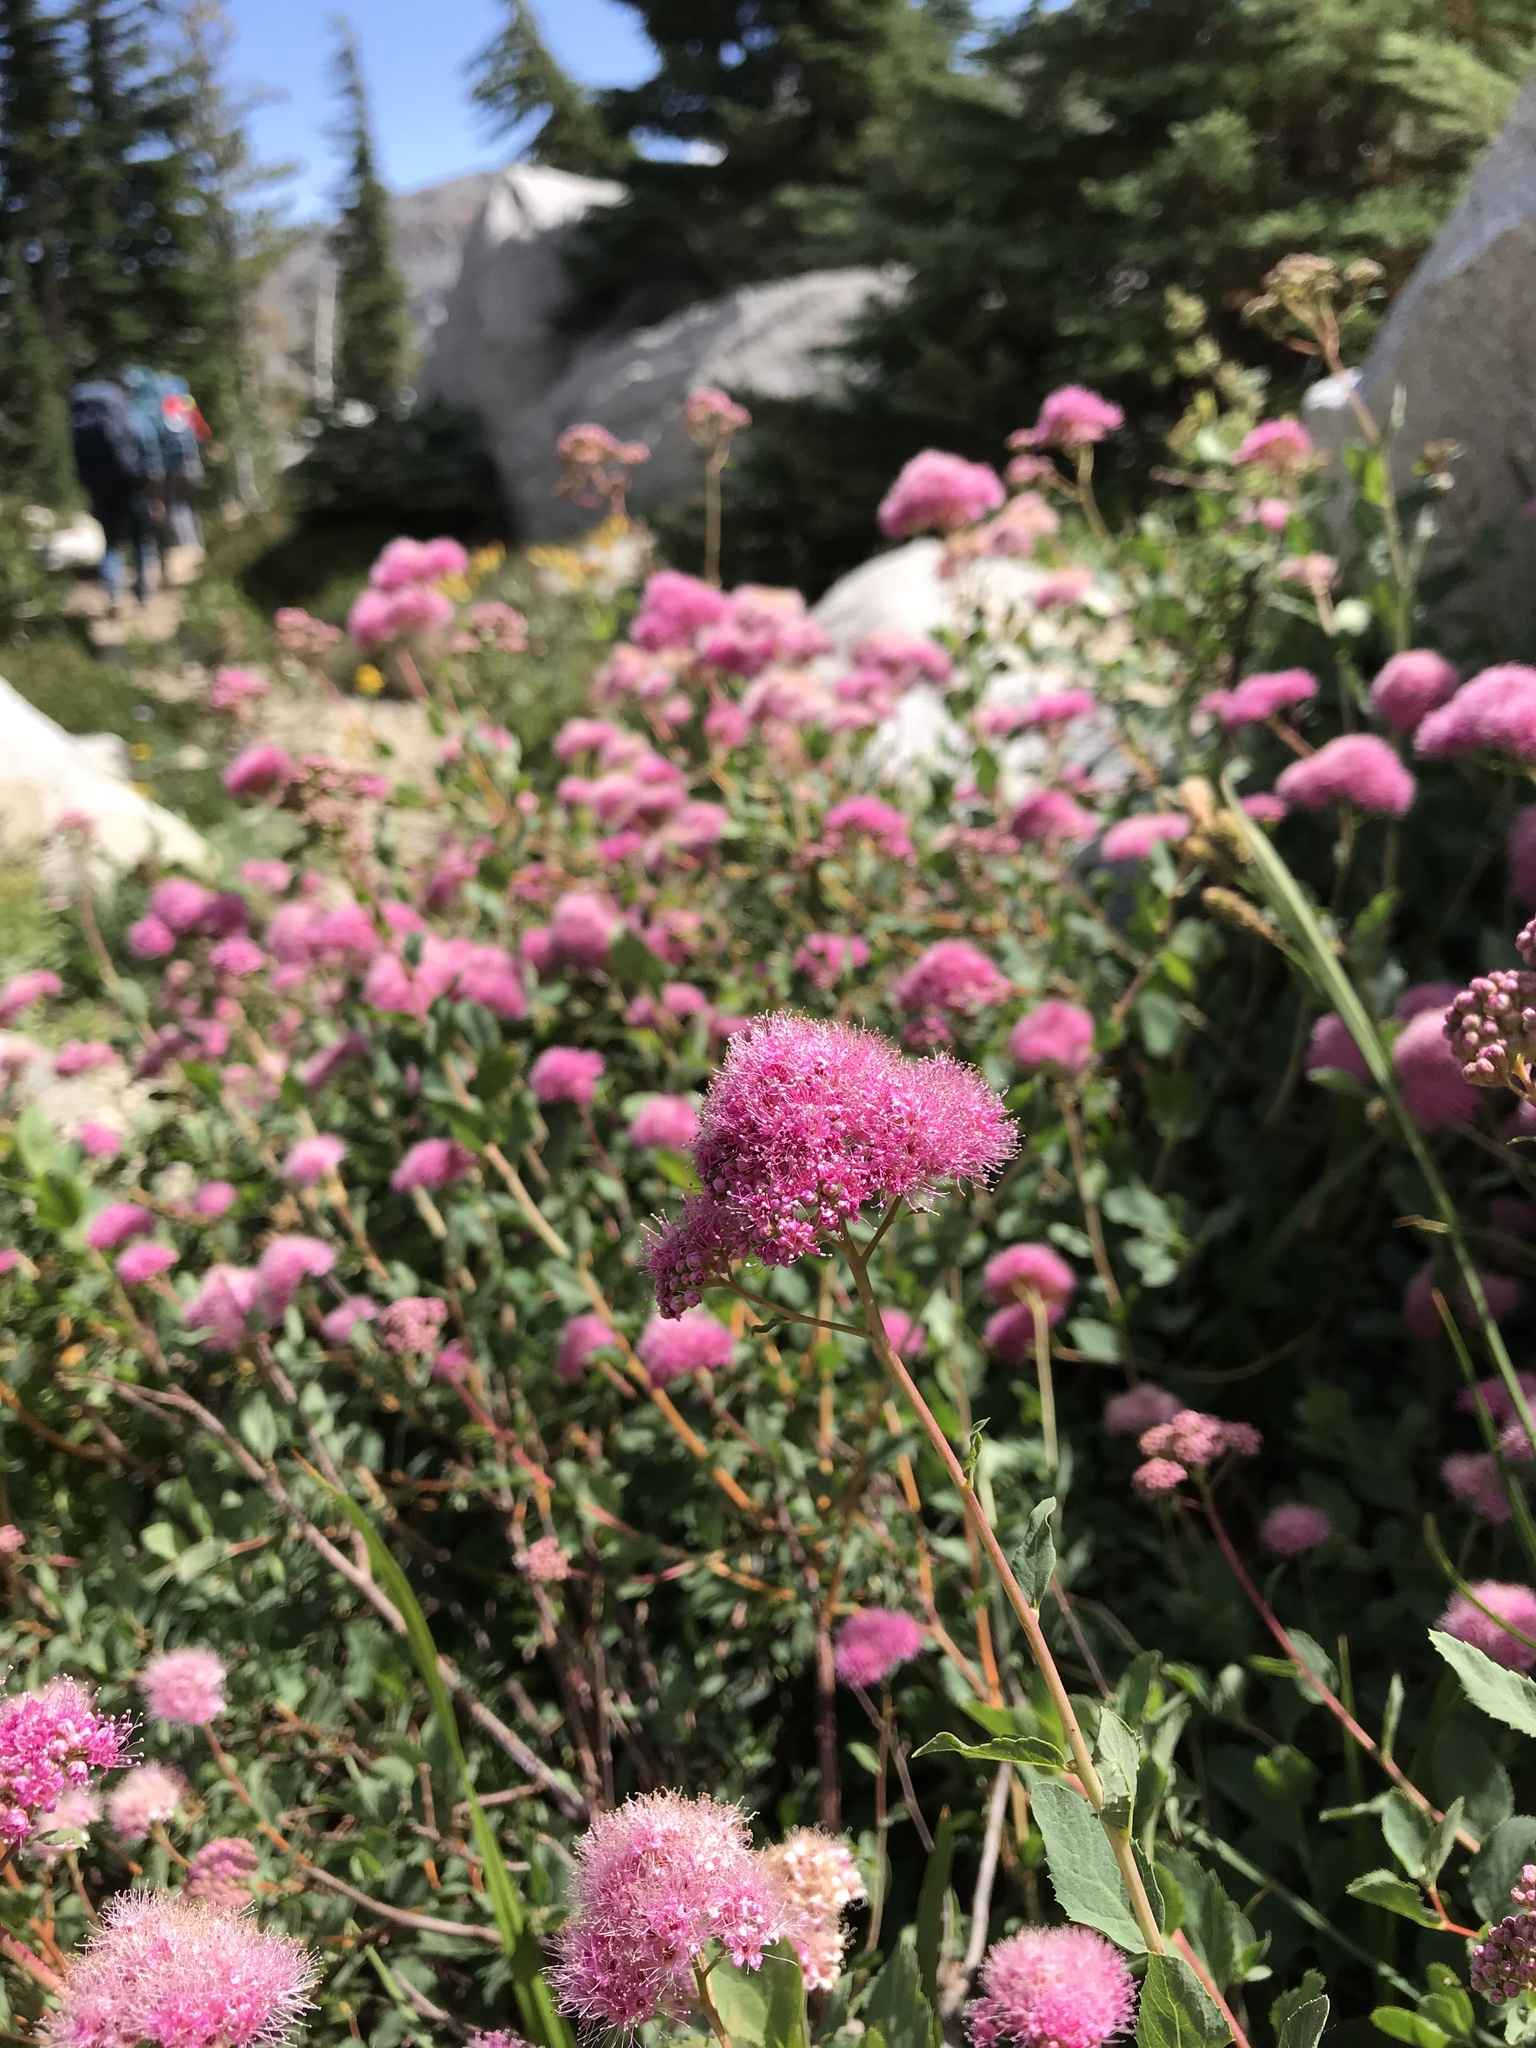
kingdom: Plantae
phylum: Tracheophyta
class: Magnoliopsida
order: Rosales
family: Rosaceae
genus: Spiraea
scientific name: Spiraea splendens
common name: Subalpine meadowsweet
